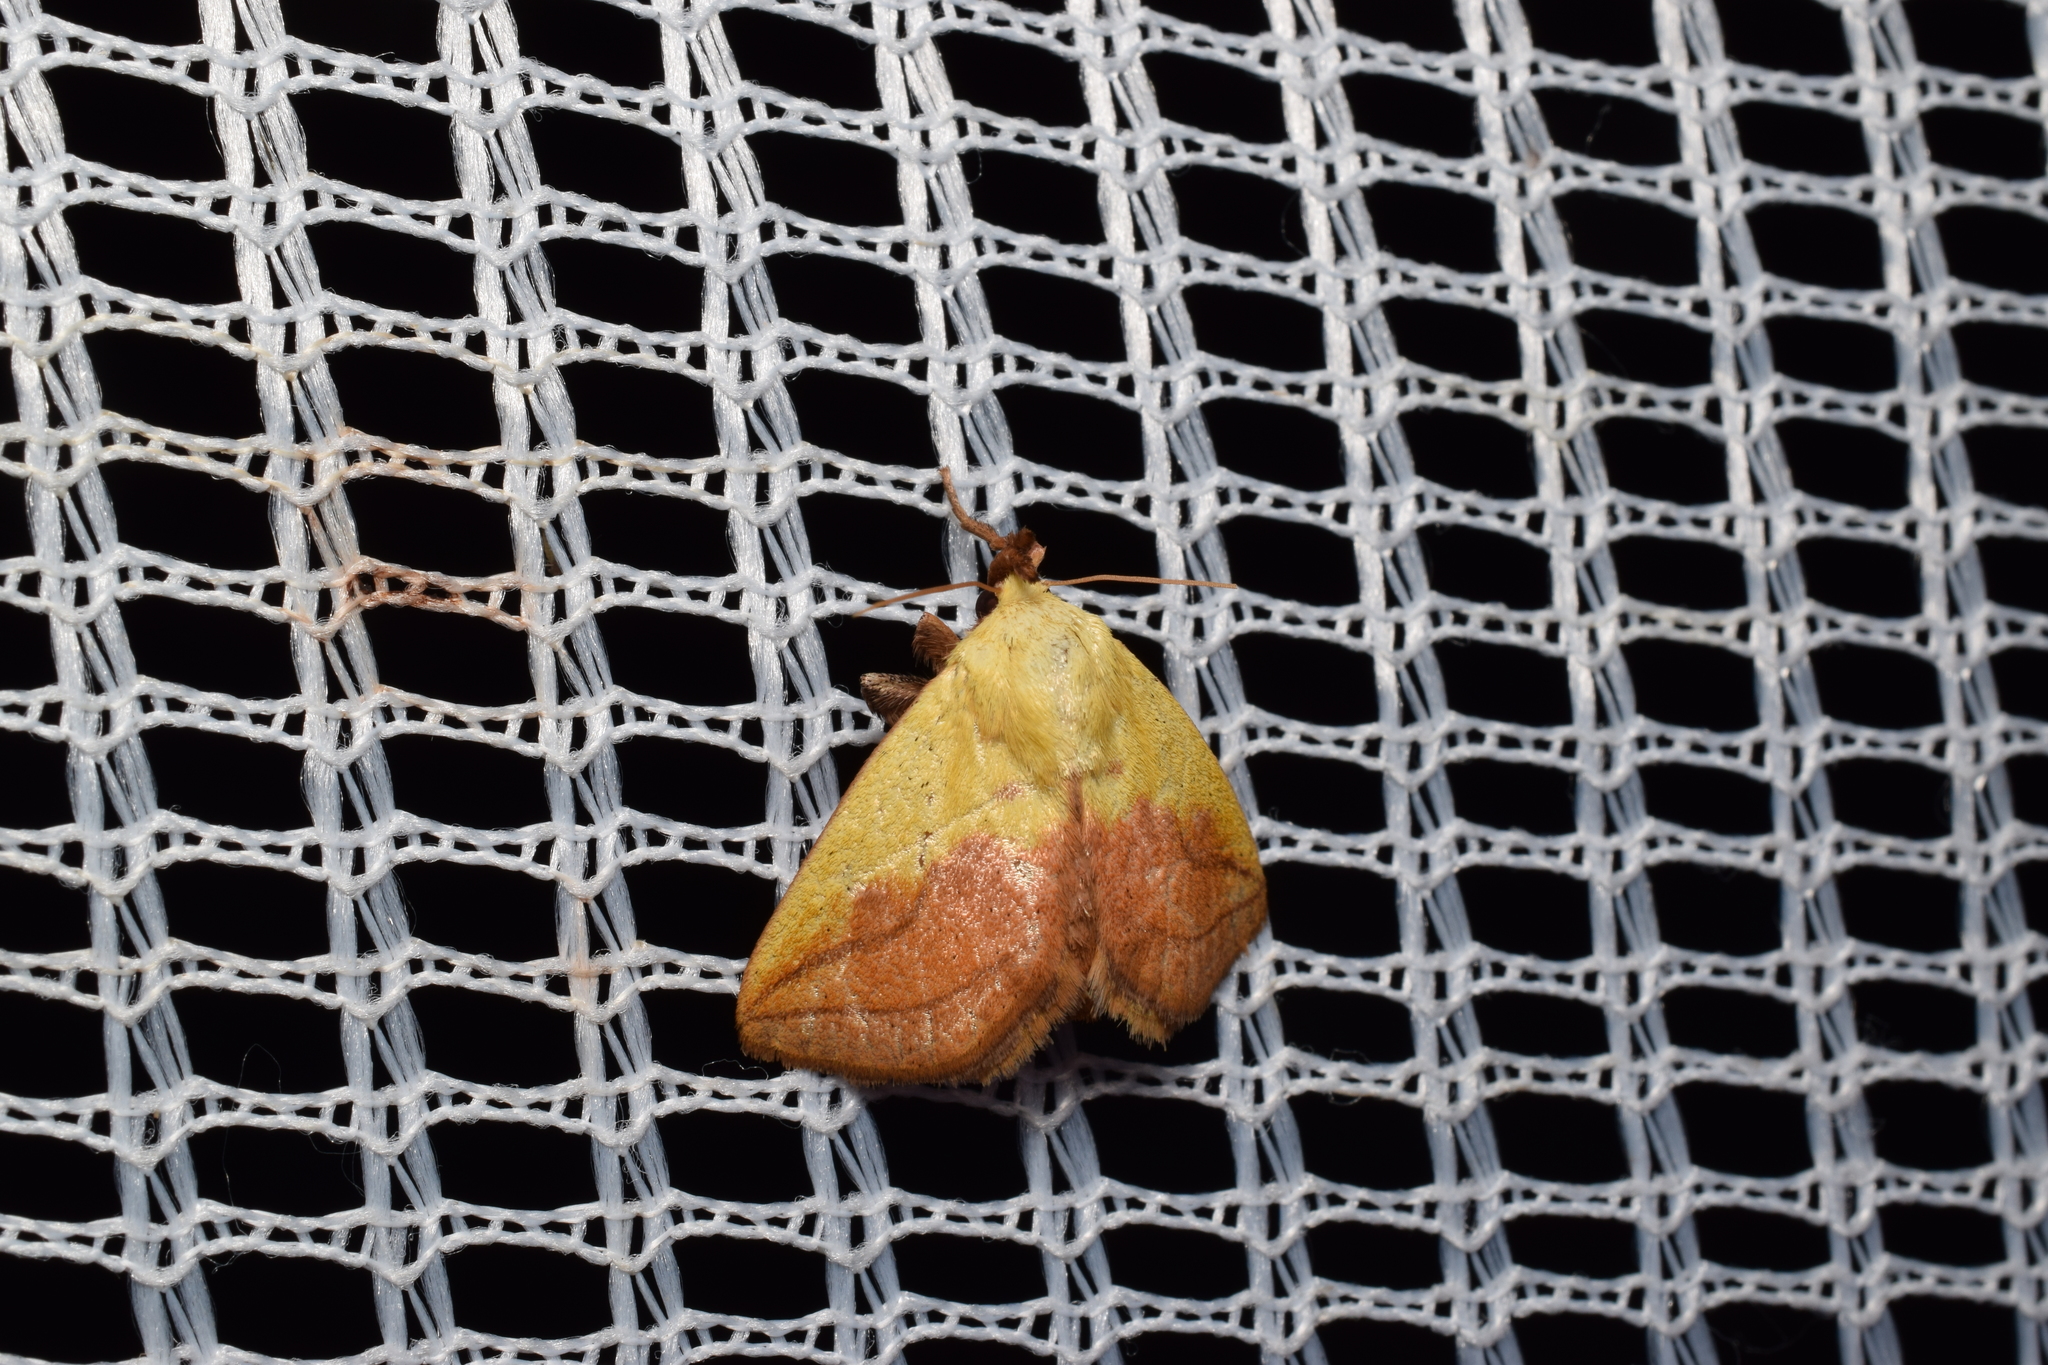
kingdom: Animalia
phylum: Arthropoda
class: Insecta
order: Lepidoptera
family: Limacodidae
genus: Monema
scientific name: Monema flavescens
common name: Oriental moth
